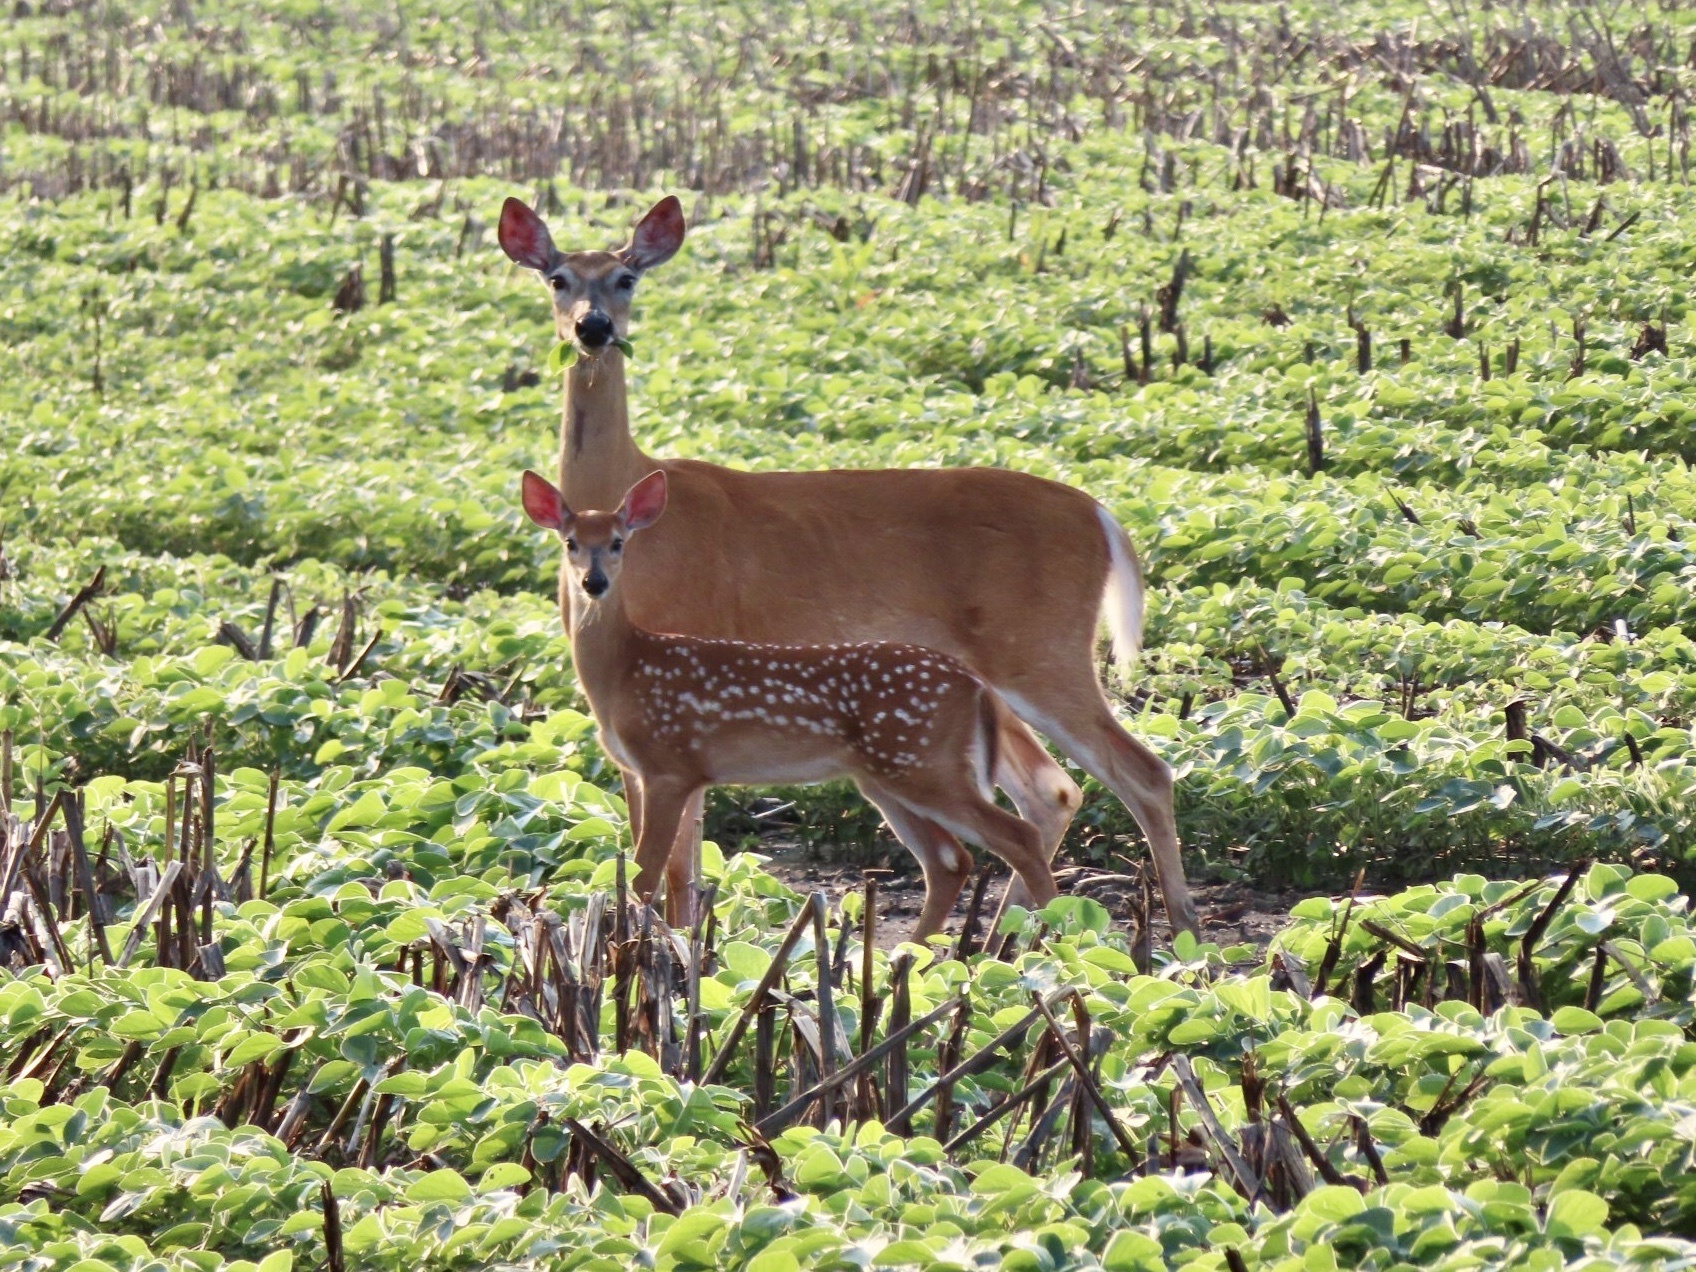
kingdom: Animalia
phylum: Chordata
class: Mammalia
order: Artiodactyla
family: Cervidae
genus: Odocoileus
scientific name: Odocoileus virginianus
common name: White-tailed deer
